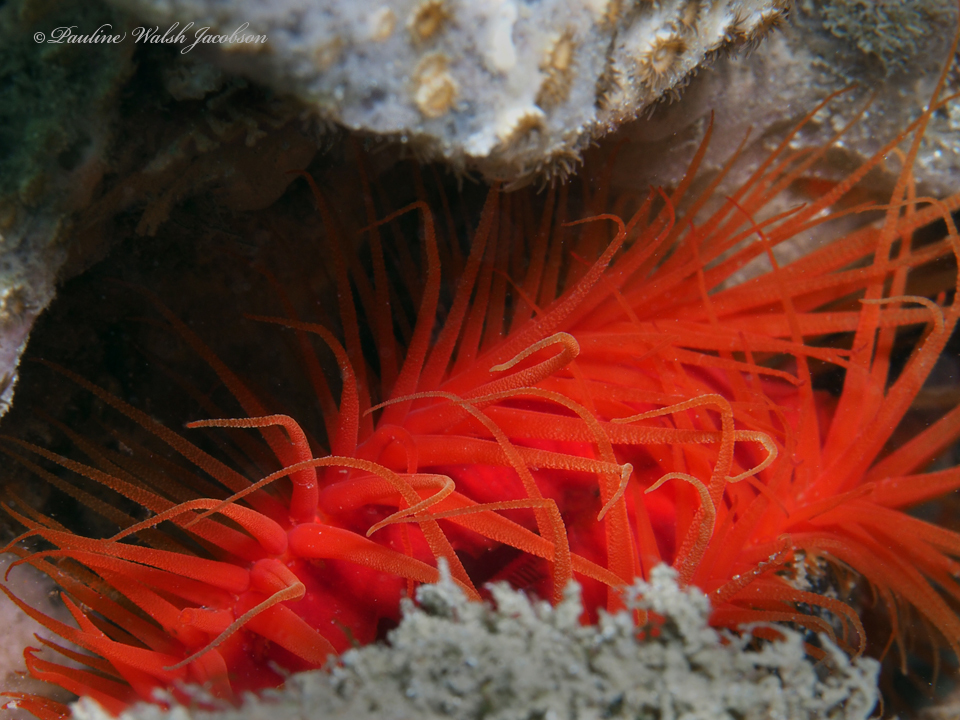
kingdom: Animalia
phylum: Mollusca
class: Bivalvia
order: Limida
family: Limidae
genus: Ctenoides
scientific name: Ctenoides scaber
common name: Rough fileclam
